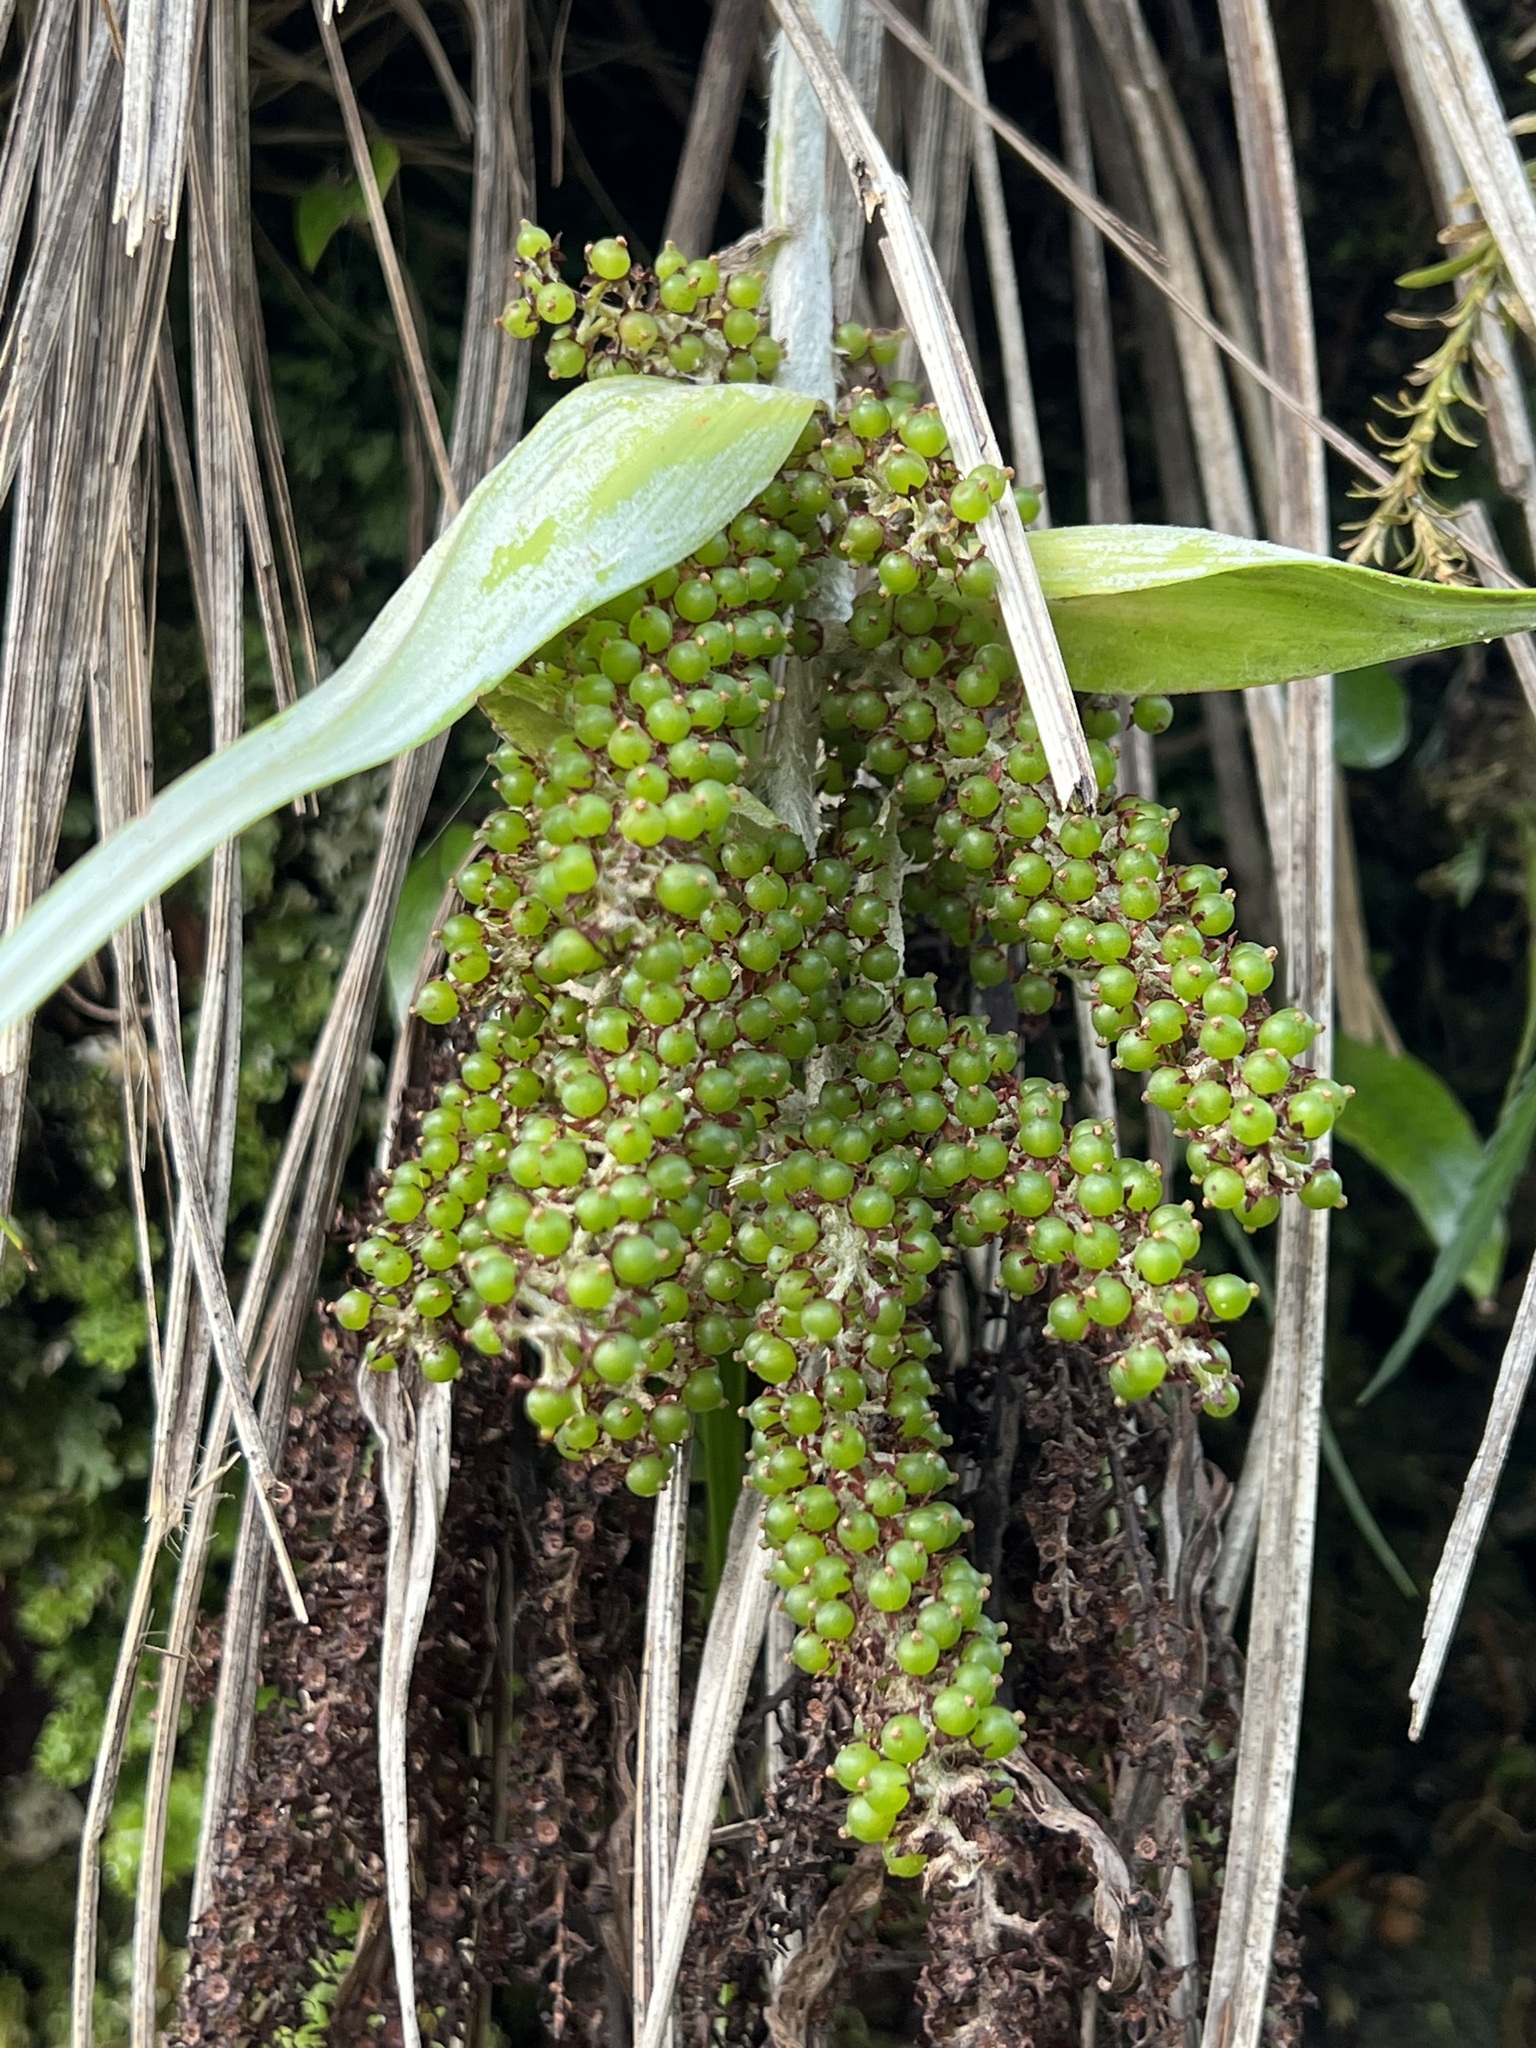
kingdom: Plantae
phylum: Tracheophyta
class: Liliopsida
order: Asparagales
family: Asteliaceae
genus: Astelia
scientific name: Astelia solandri
